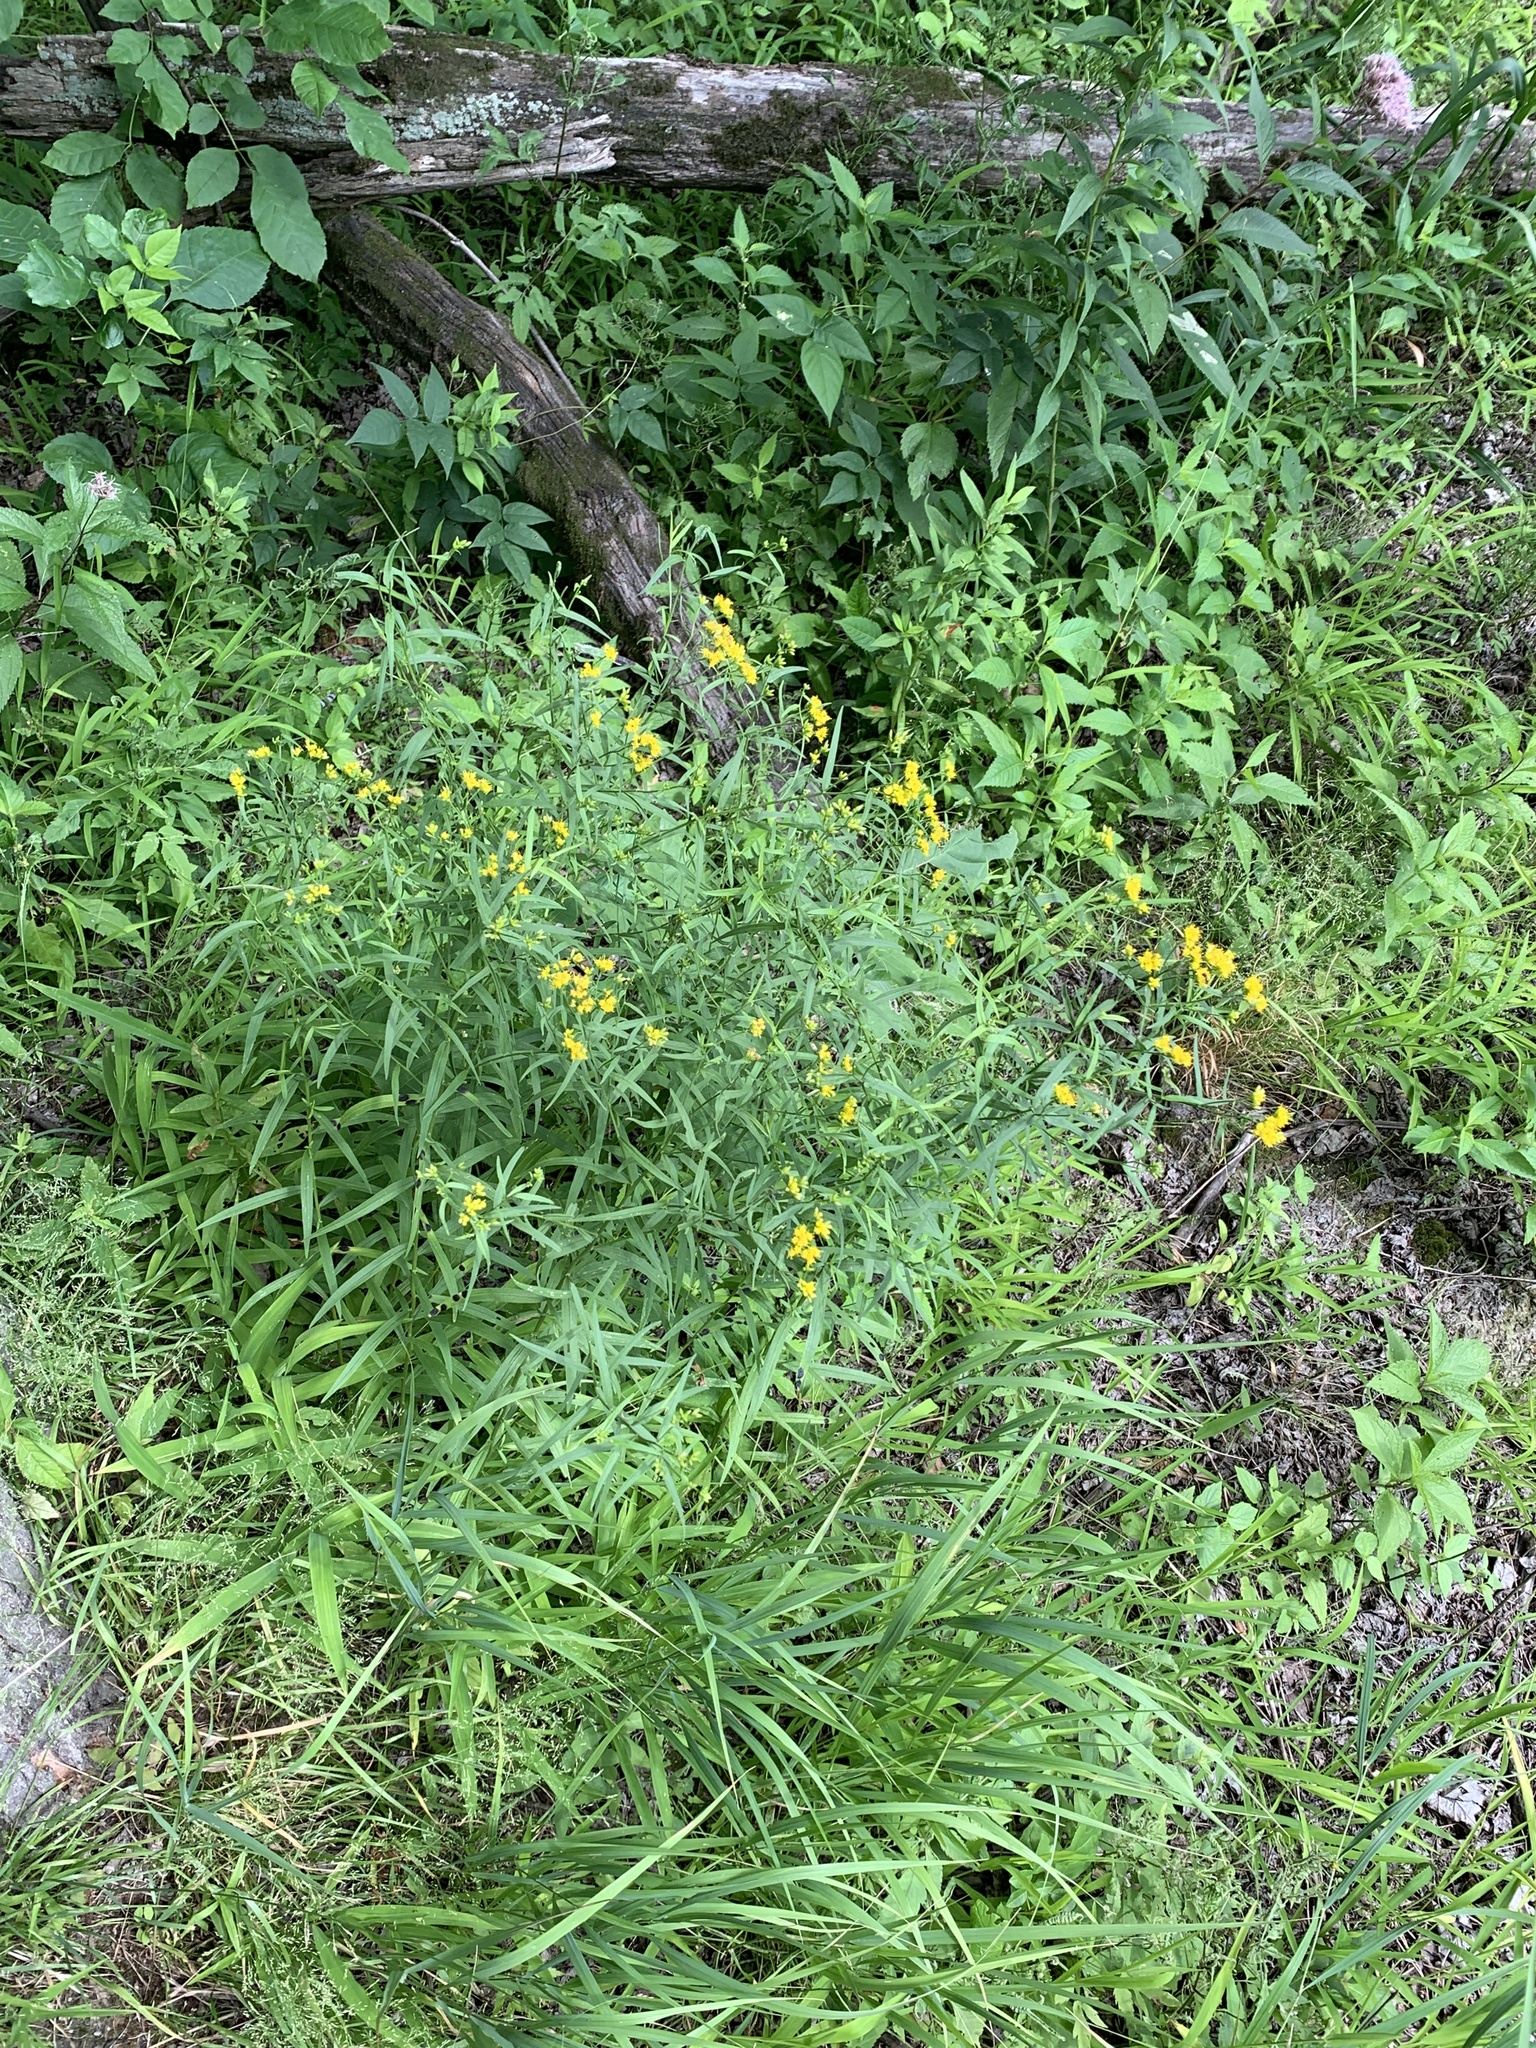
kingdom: Plantae
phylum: Tracheophyta
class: Magnoliopsida
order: Asterales
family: Asteraceae
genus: Euthamia
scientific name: Euthamia graminifolia
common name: Common goldentop
